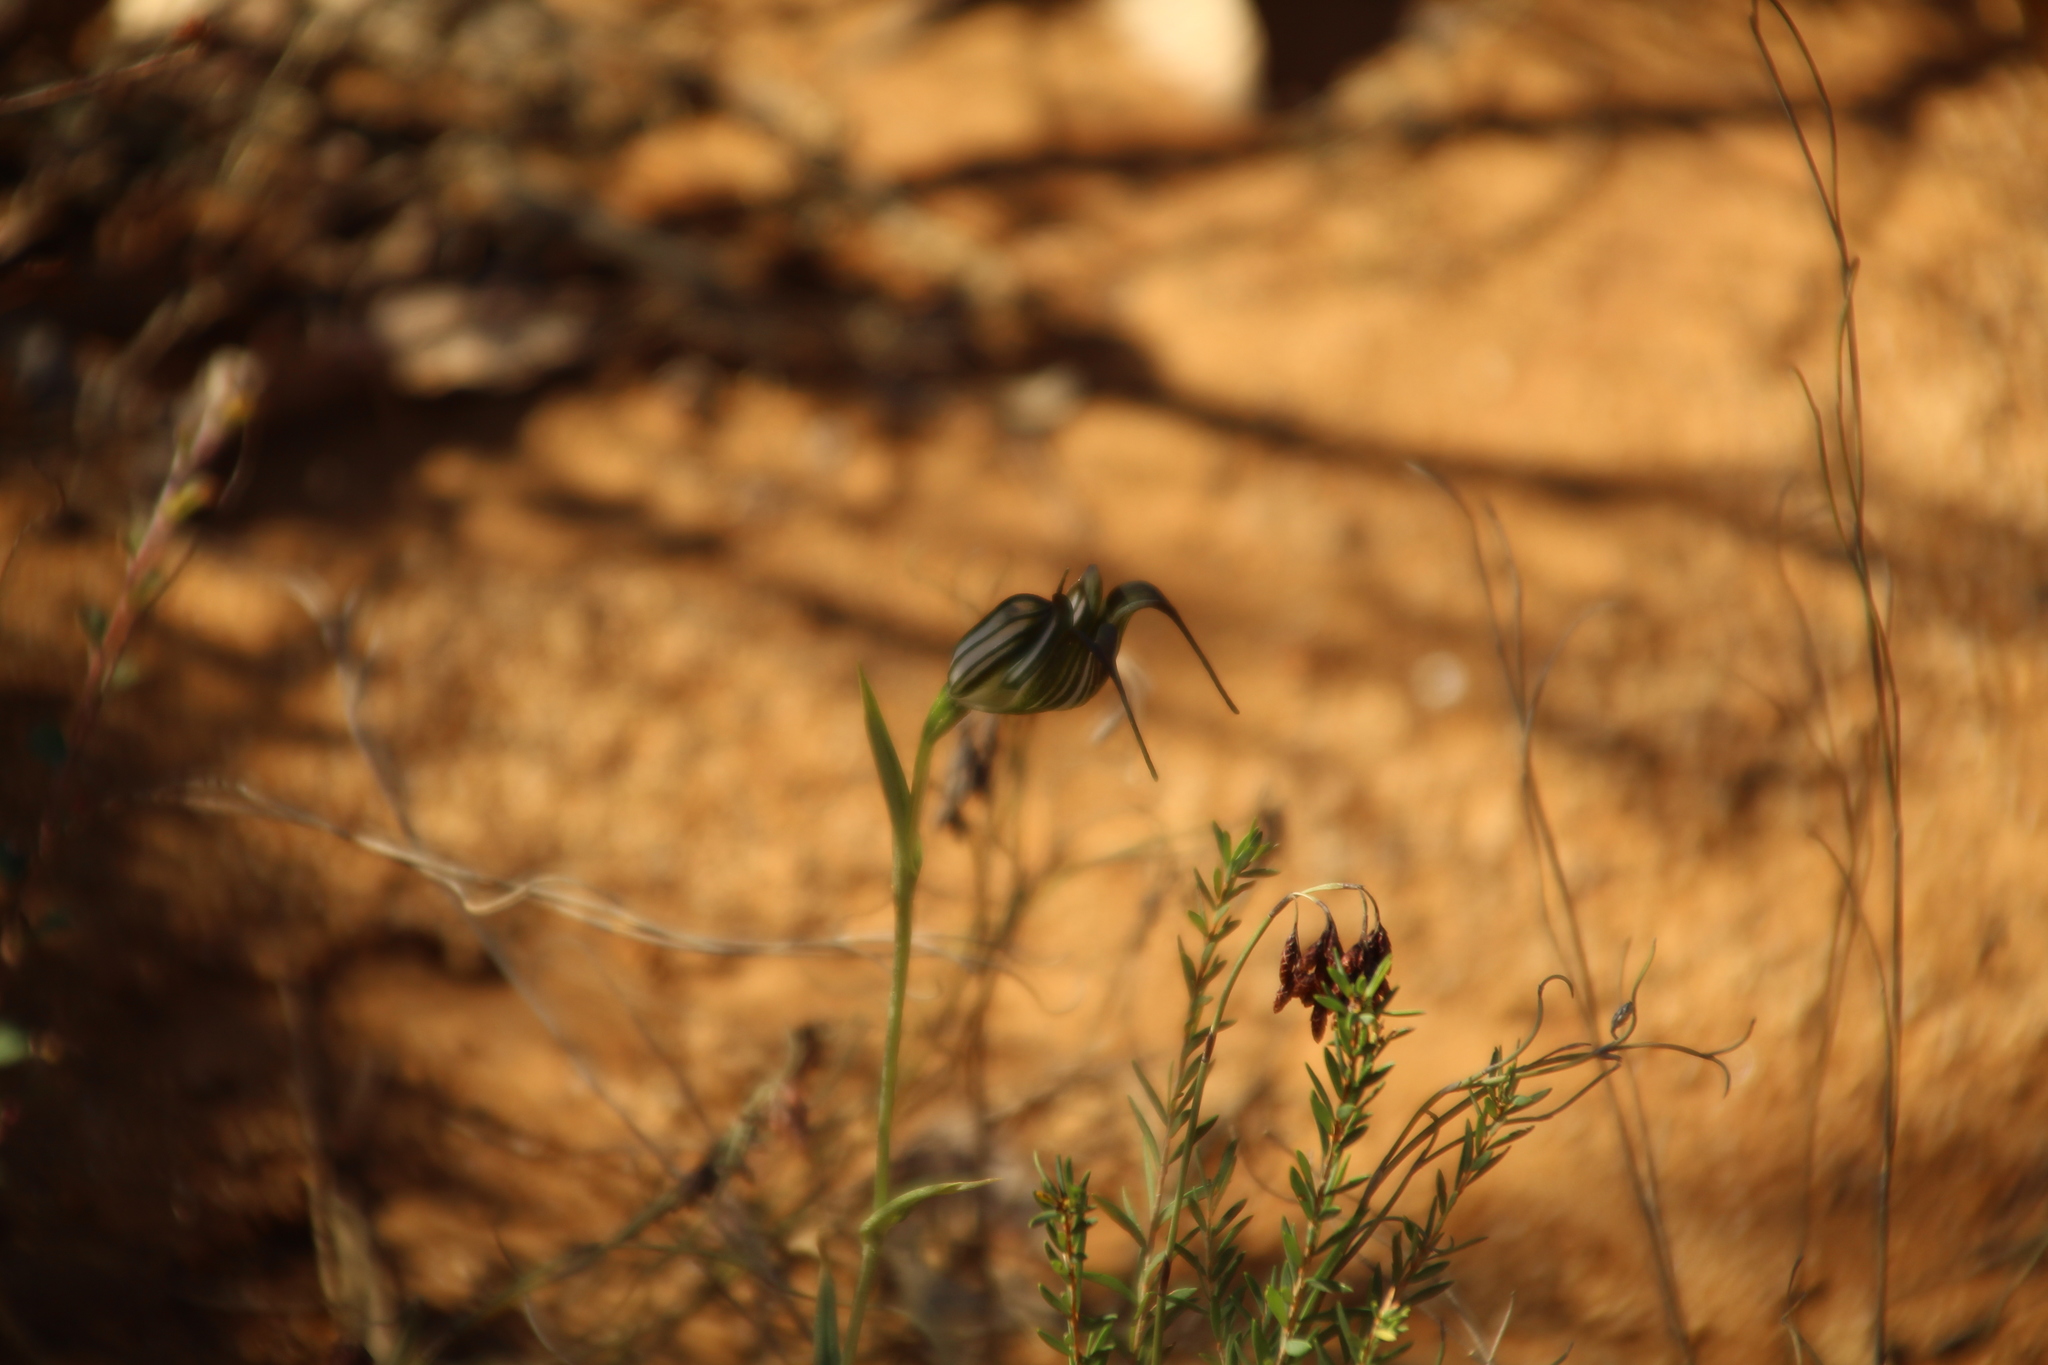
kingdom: Plantae
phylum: Tracheophyta
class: Liliopsida
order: Asparagales
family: Orchidaceae
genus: Pterostylis
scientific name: Pterostylis recurva
